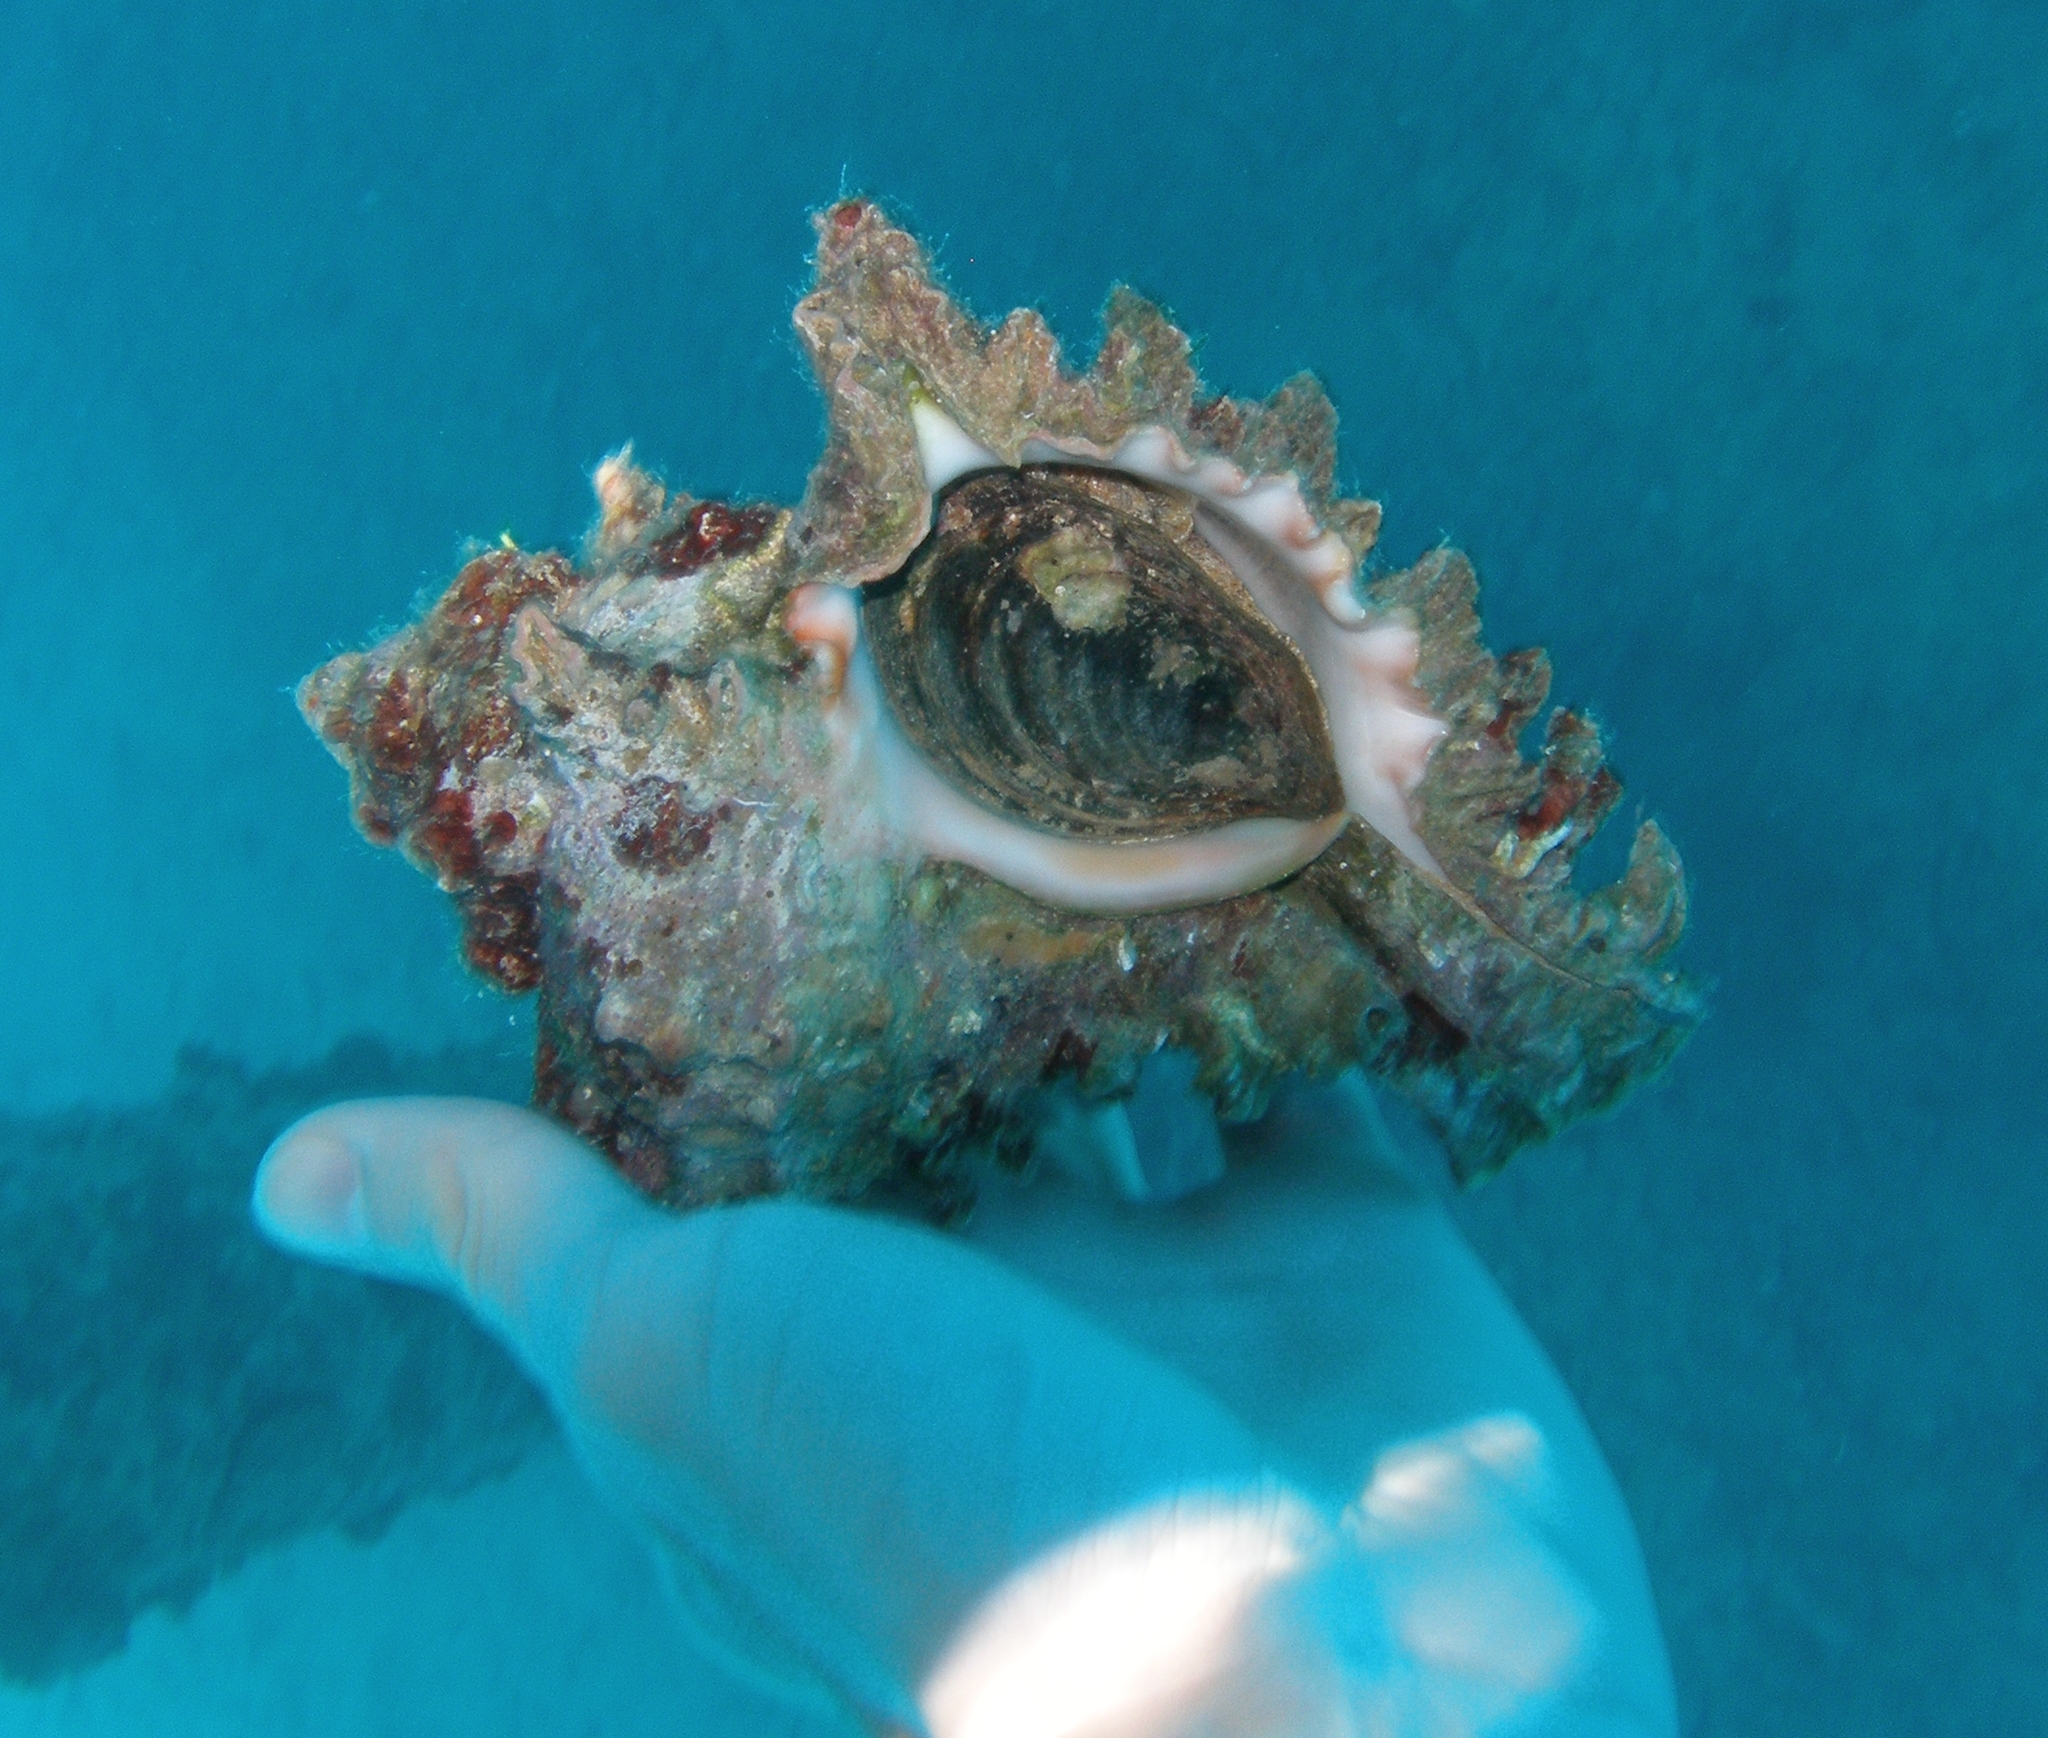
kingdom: Animalia
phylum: Mollusca
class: Gastropoda
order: Neogastropoda
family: Muricidae
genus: Chicoreus
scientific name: Chicoreus ramosus
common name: Branched murex
